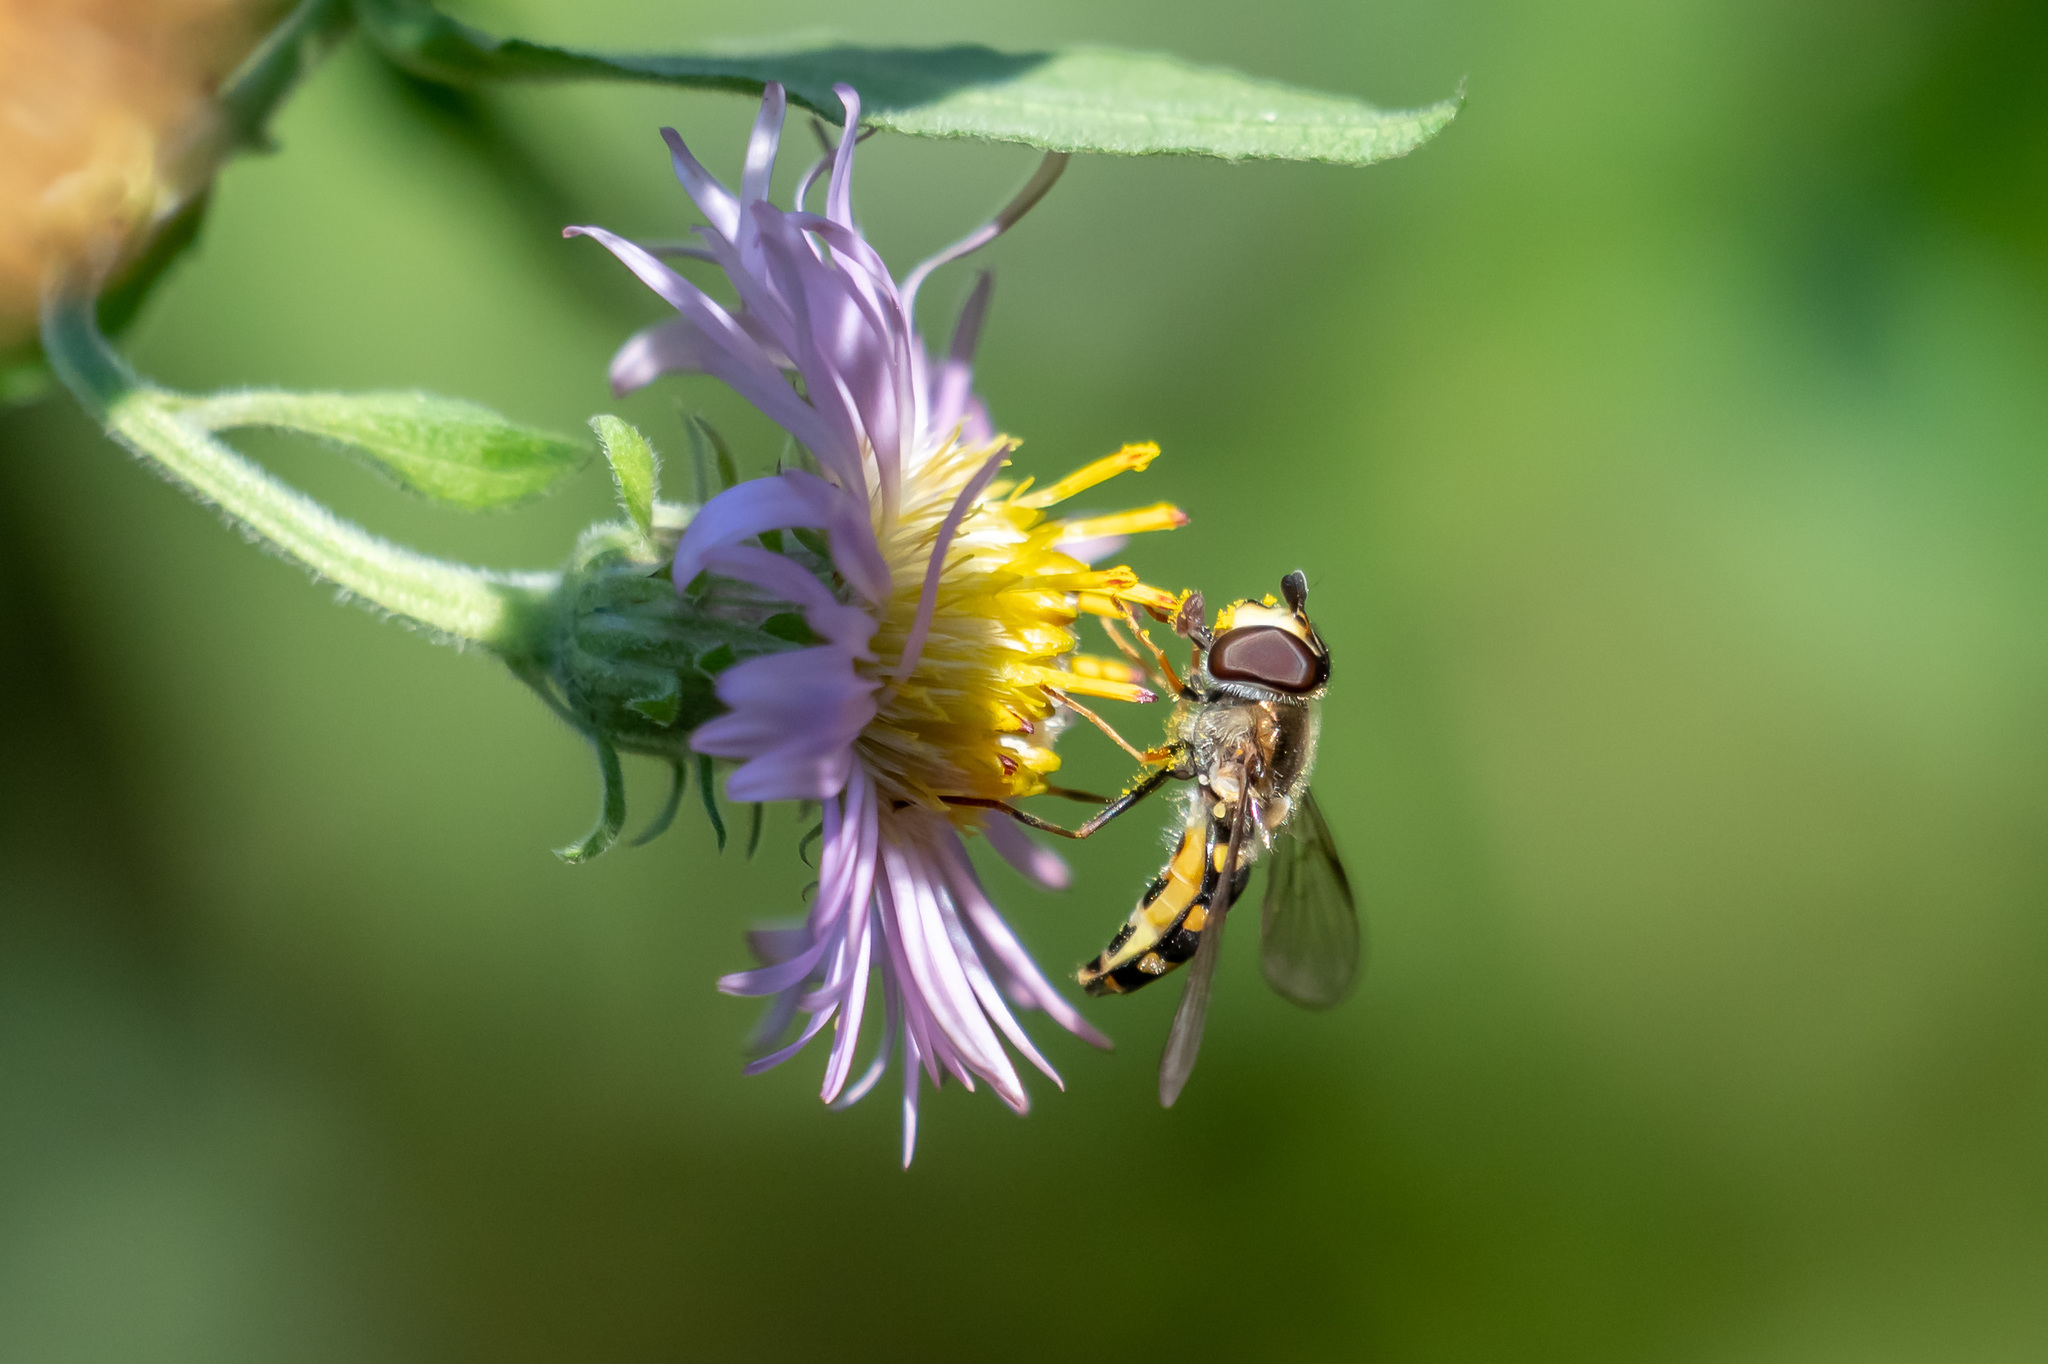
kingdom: Animalia
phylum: Arthropoda
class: Insecta
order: Diptera
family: Syrphidae
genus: Eupeodes
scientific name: Eupeodes
